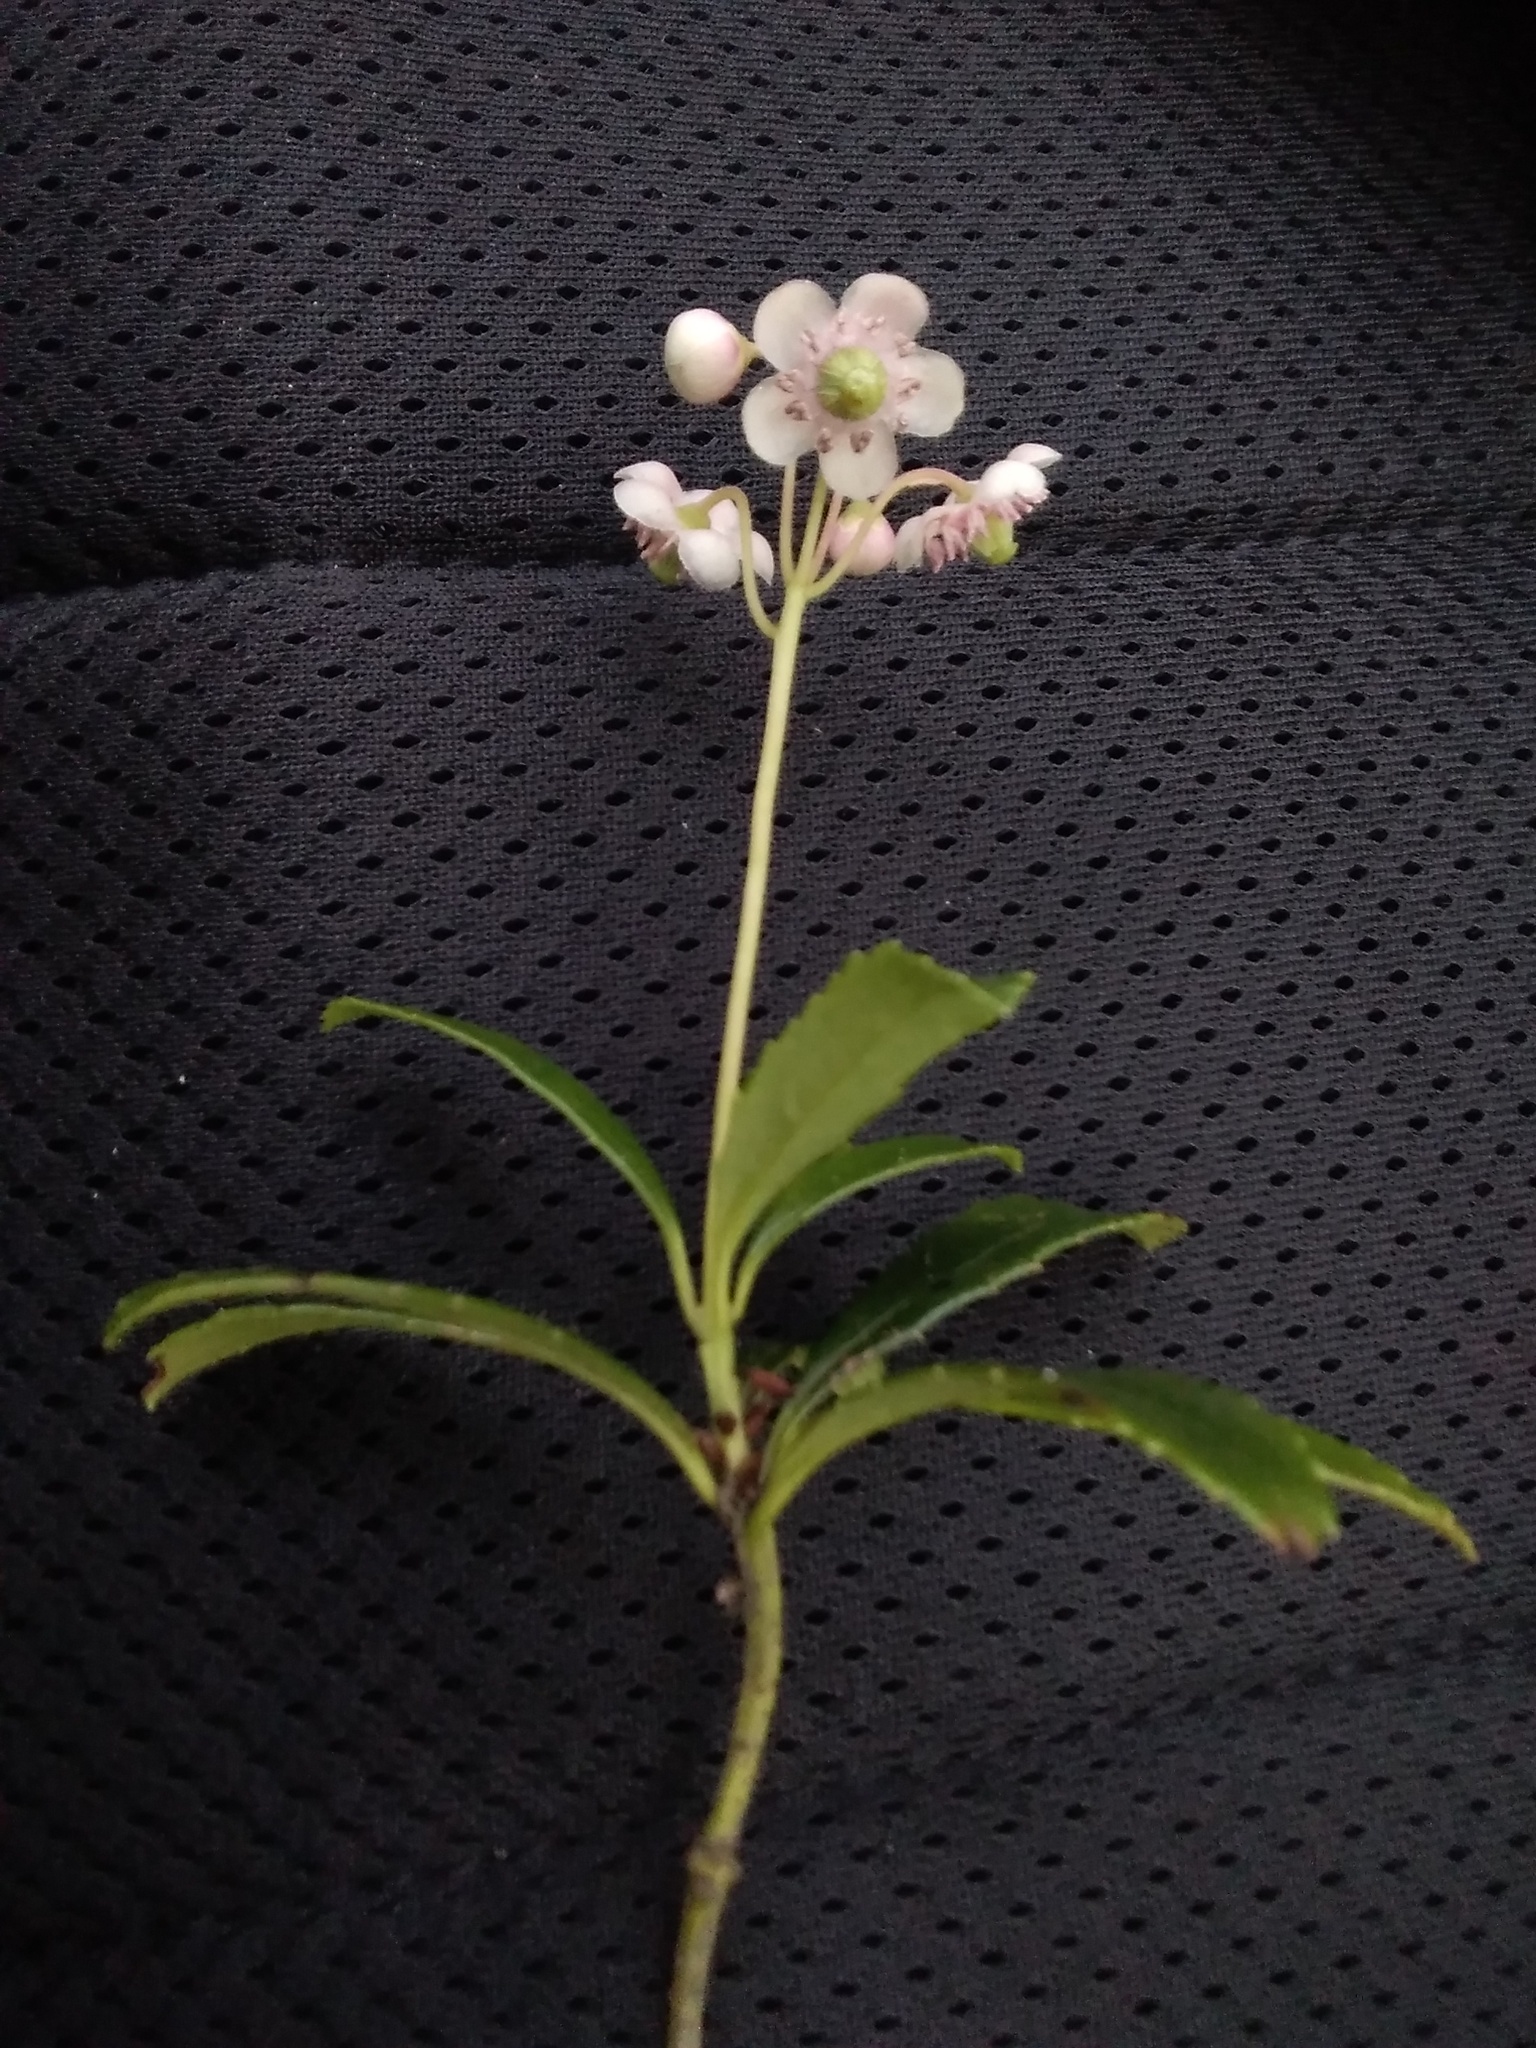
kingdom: Plantae
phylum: Tracheophyta
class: Magnoliopsida
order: Ericales
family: Ericaceae
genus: Chimaphila
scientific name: Chimaphila umbellata
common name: Pipsissewa
